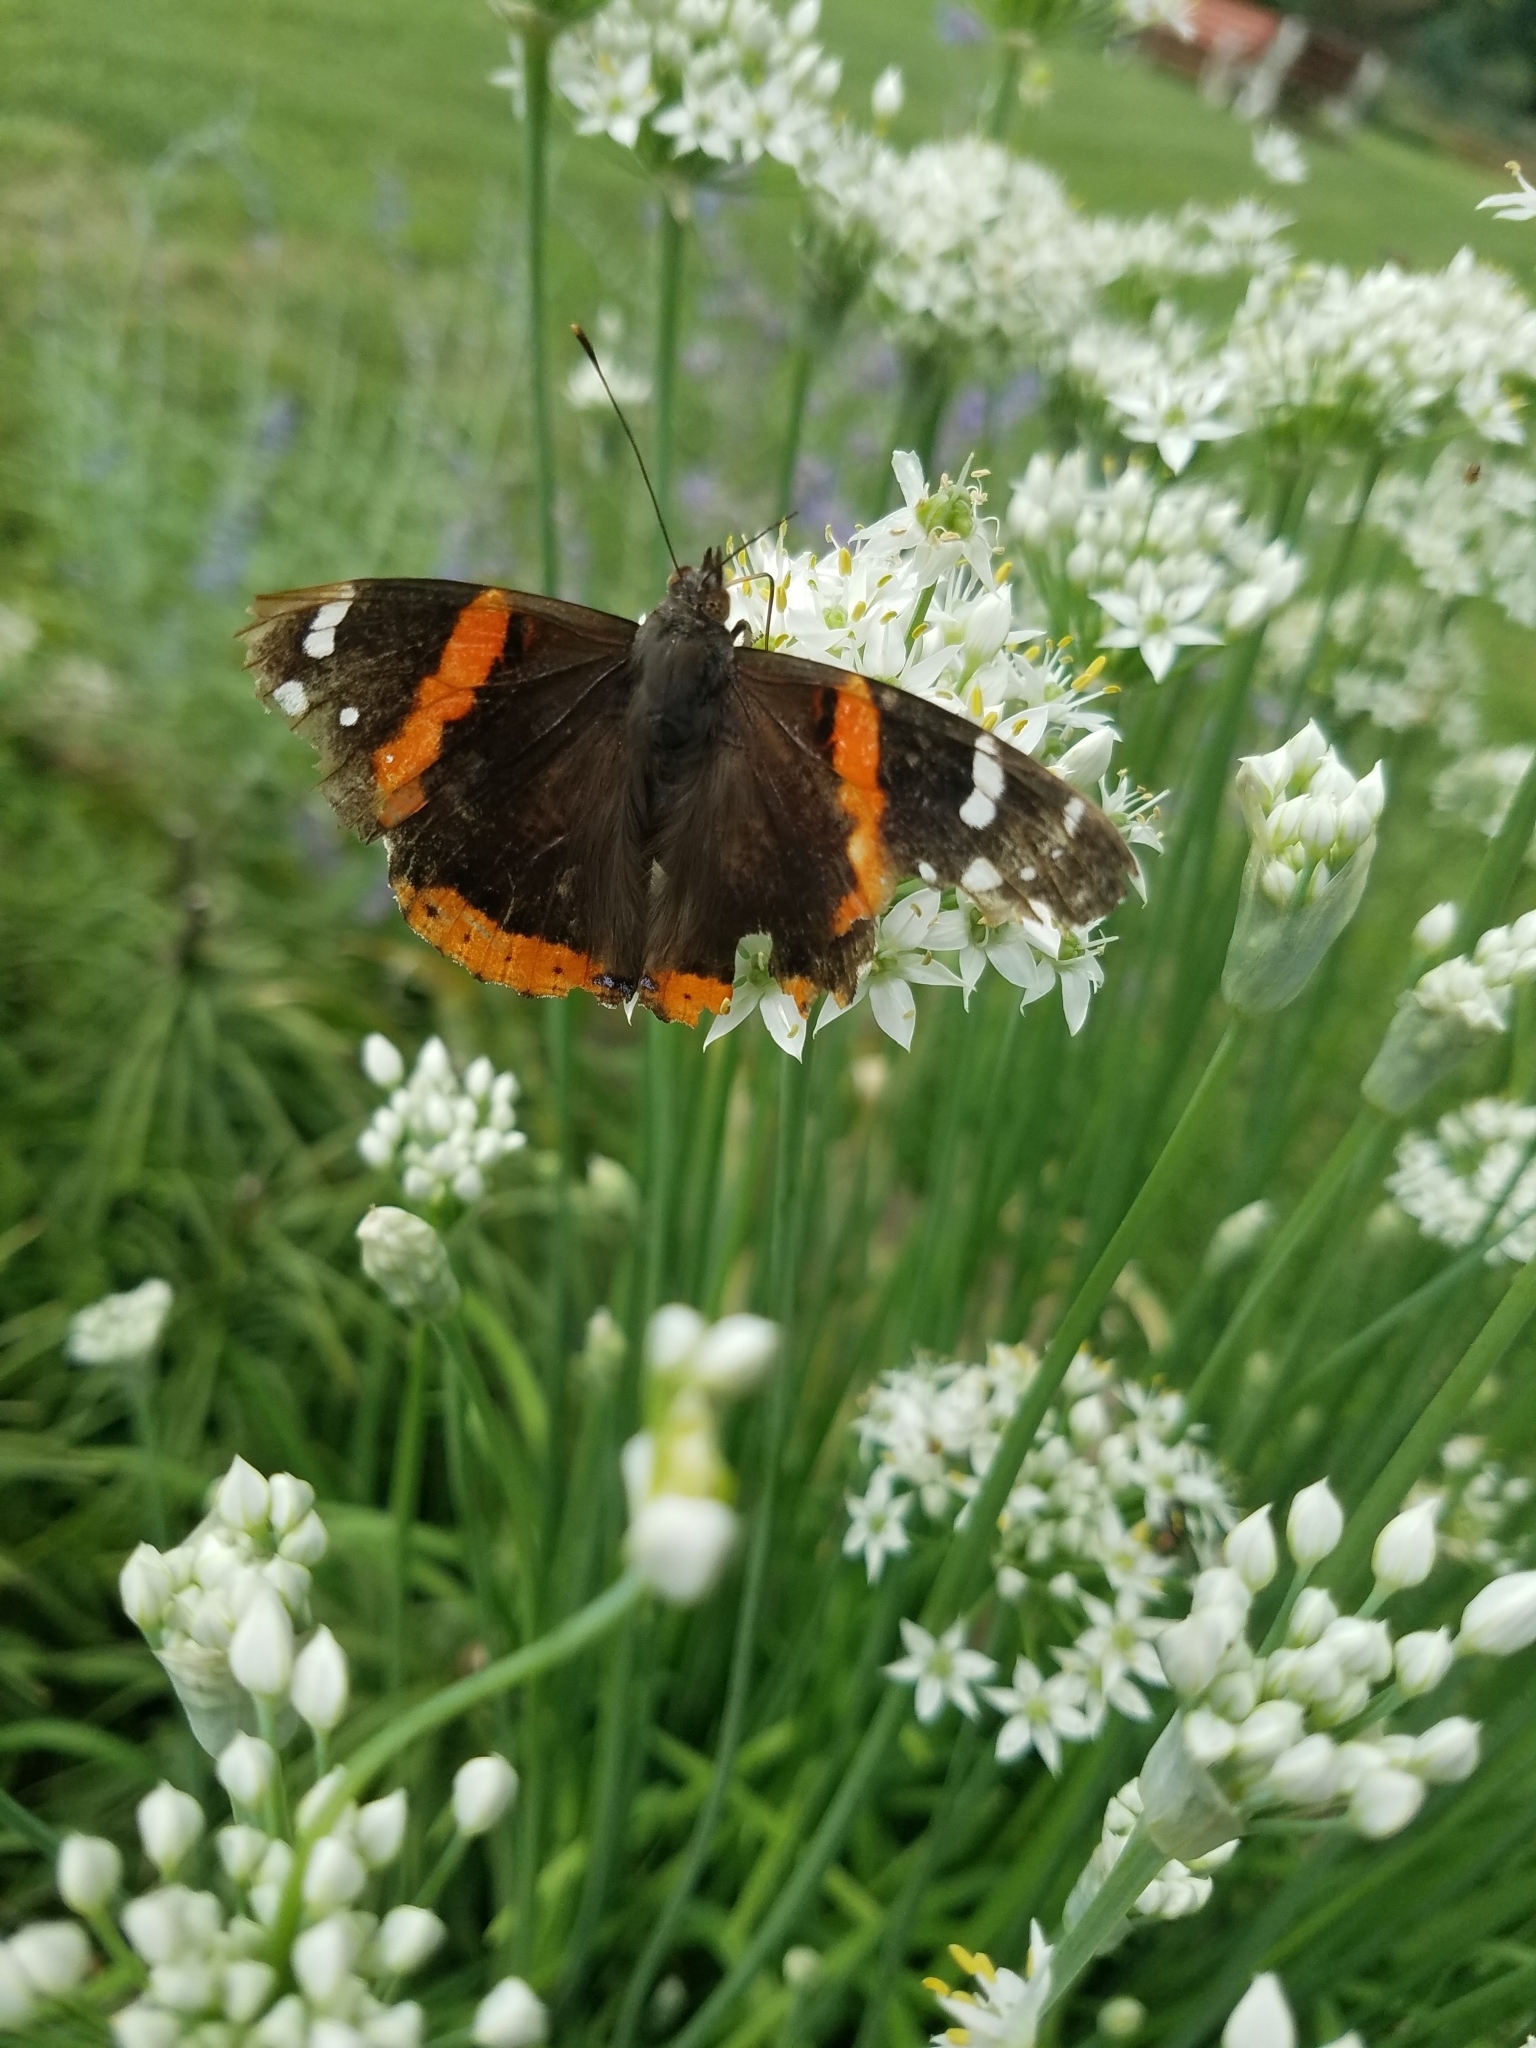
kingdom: Animalia
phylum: Arthropoda
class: Insecta
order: Lepidoptera
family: Nymphalidae
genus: Vanessa
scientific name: Vanessa atalanta
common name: Red admiral
